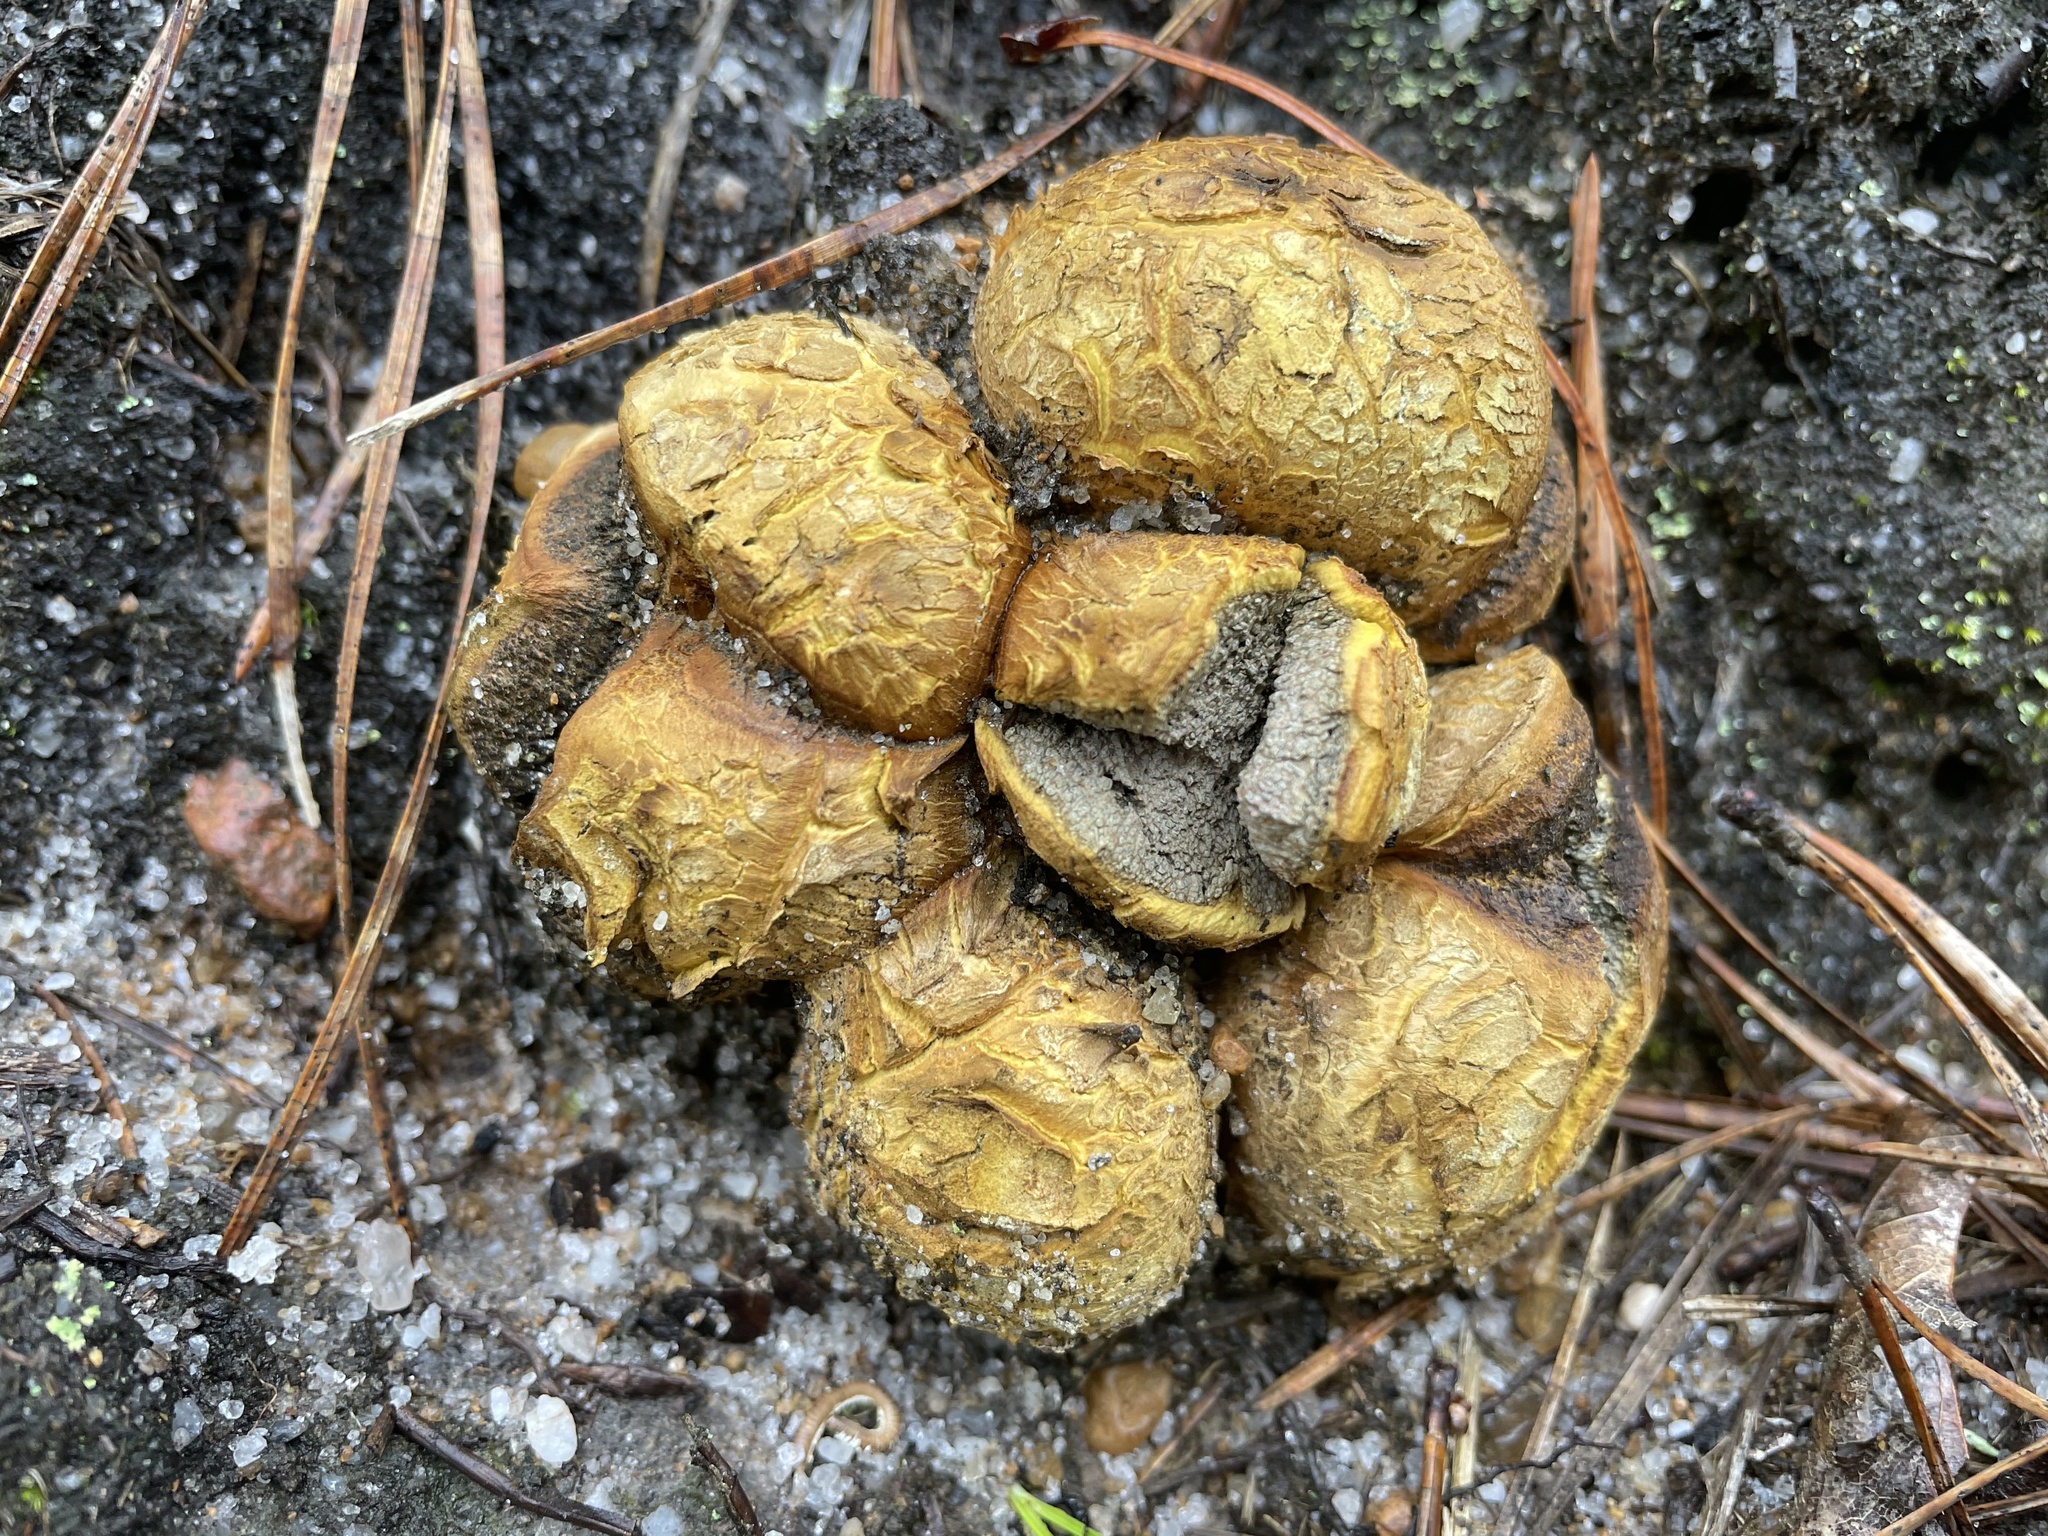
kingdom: Fungi
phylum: Basidiomycota
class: Agaricomycetes
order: Boletales
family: Sclerodermataceae
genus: Scleroderma
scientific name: Scleroderma polyrhizum
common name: Many-rooted earthball
